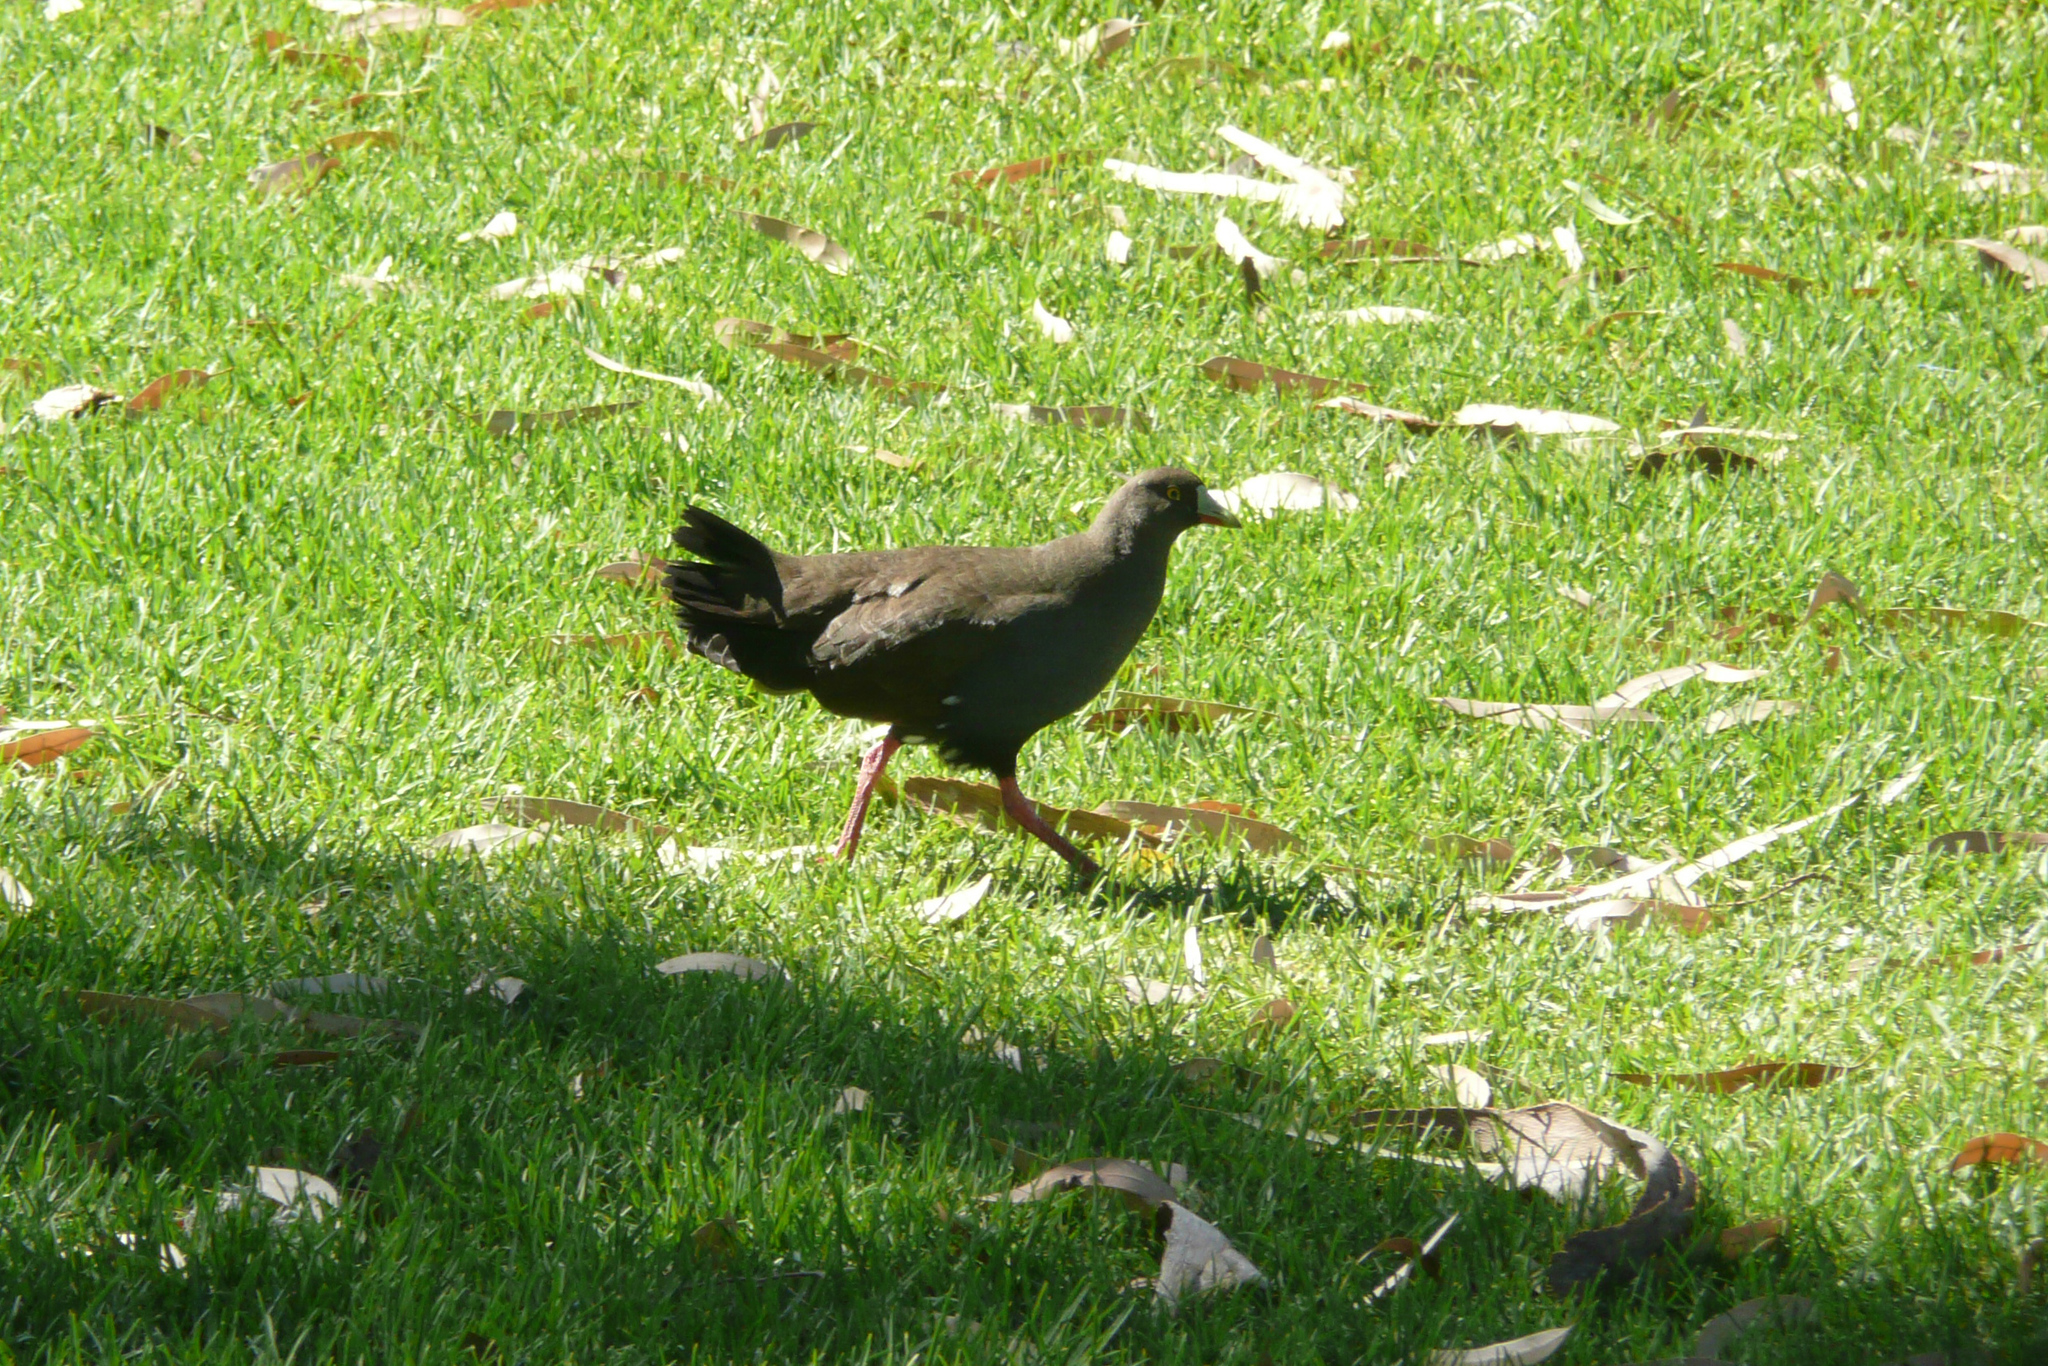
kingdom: Animalia
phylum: Chordata
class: Aves
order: Gruiformes
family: Rallidae
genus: Gallinula
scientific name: Gallinula ventralis
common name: Black-tailed nativehen
